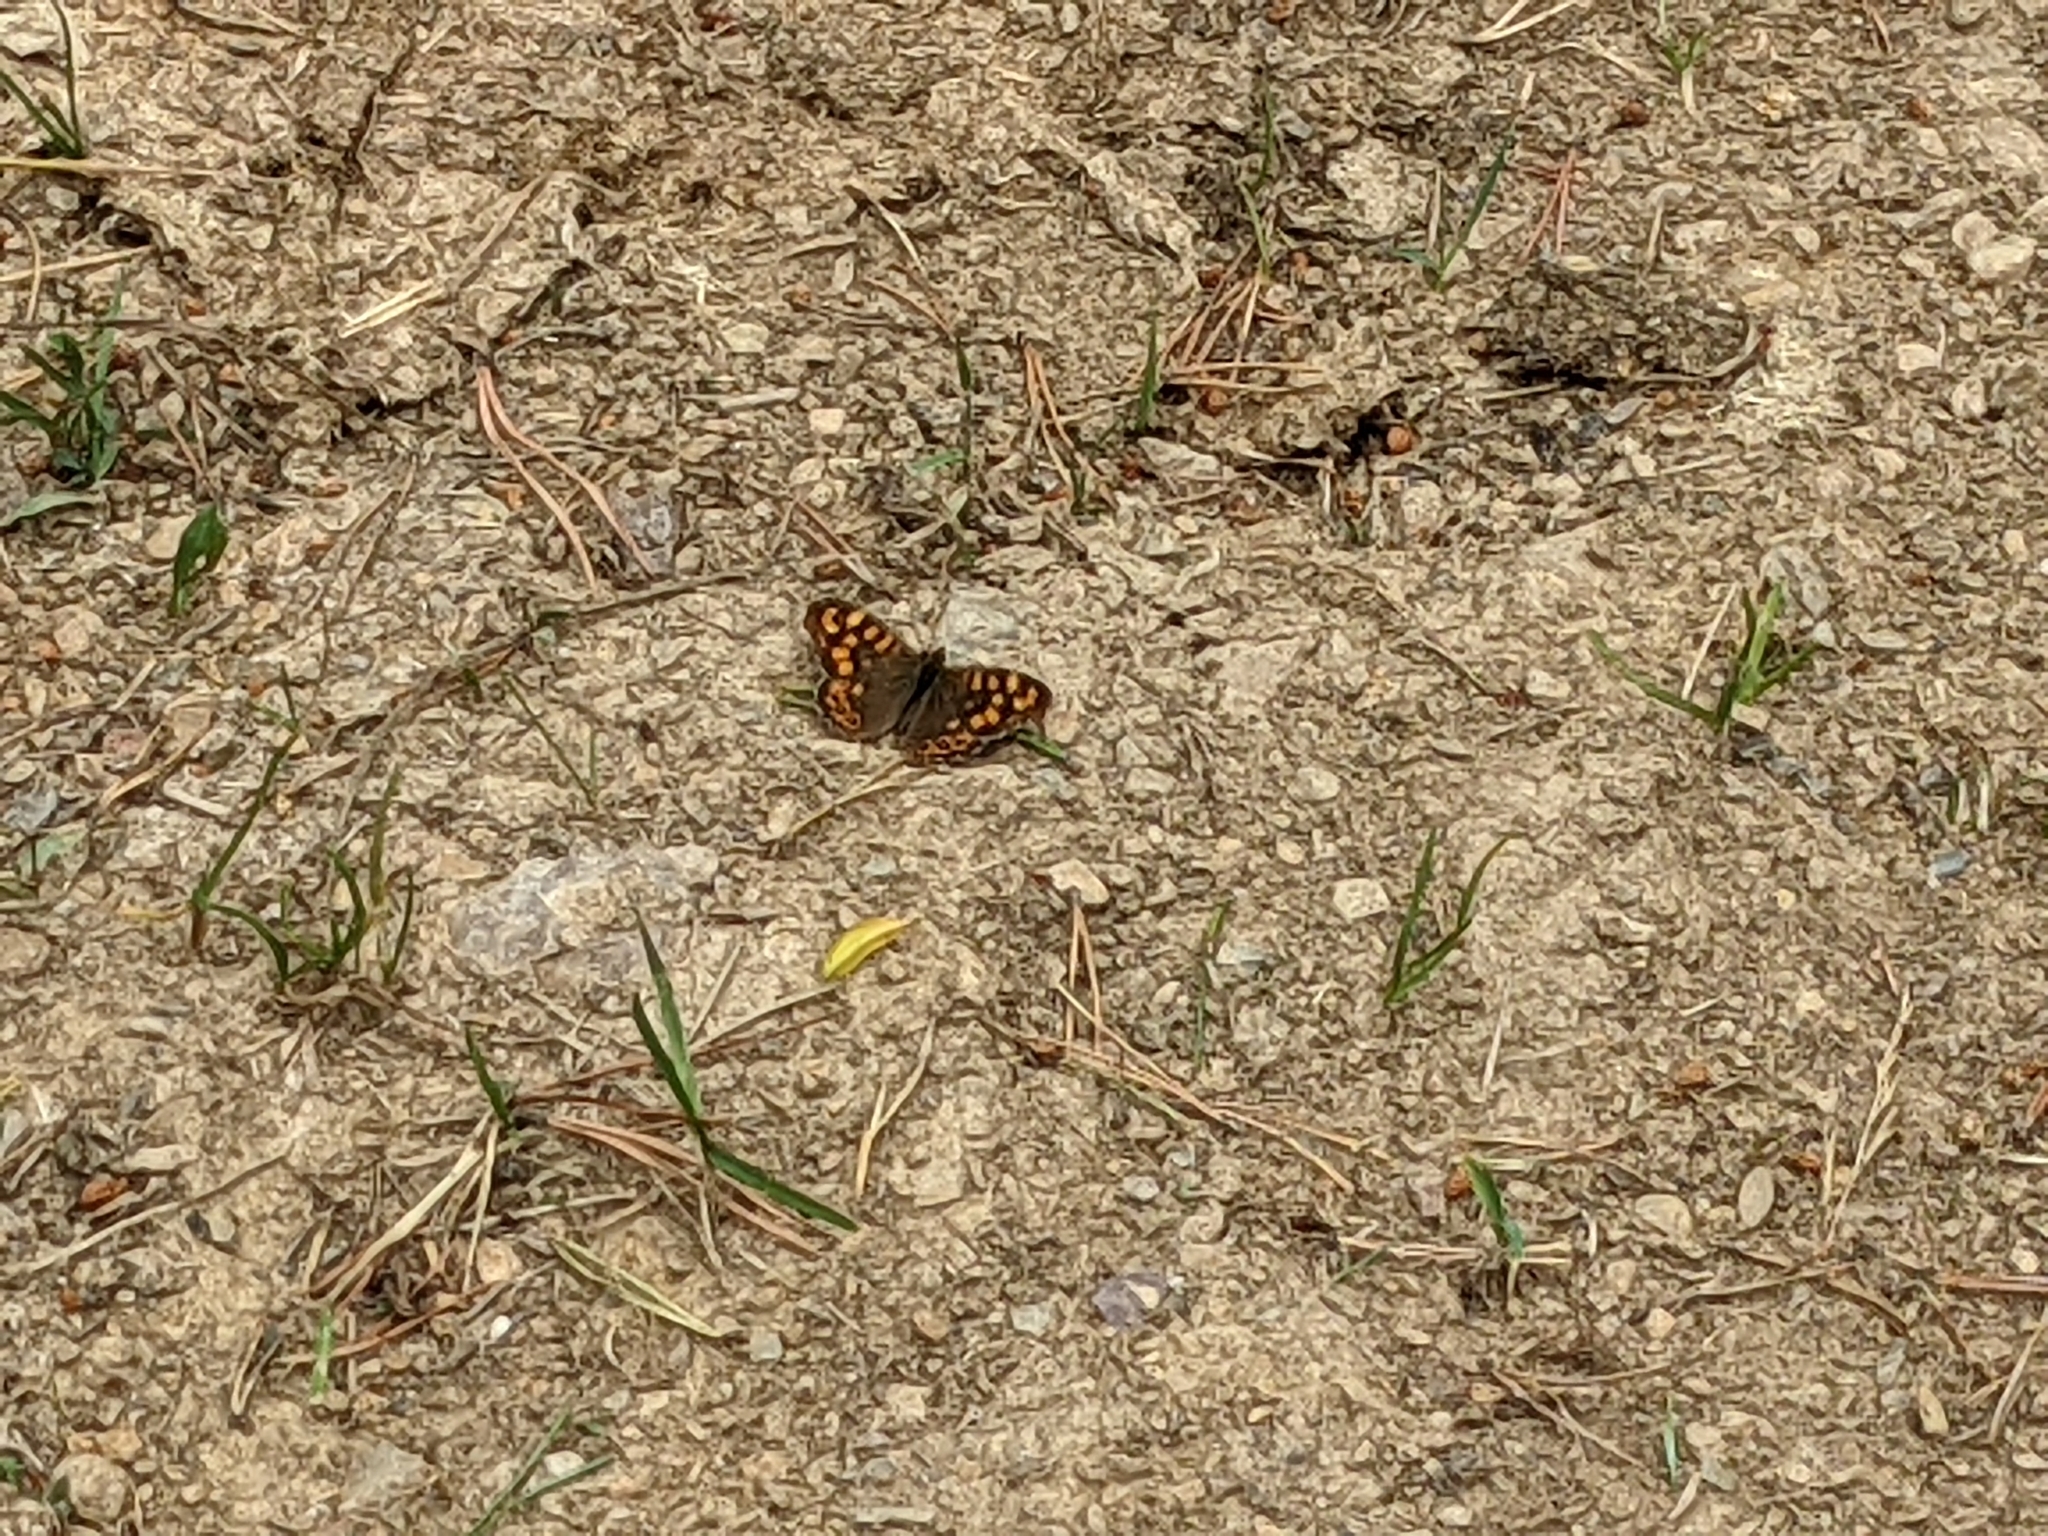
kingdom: Animalia
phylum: Arthropoda
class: Insecta
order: Lepidoptera
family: Nymphalidae
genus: Pararge
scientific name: Pararge aegeria
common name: Speckled wood
